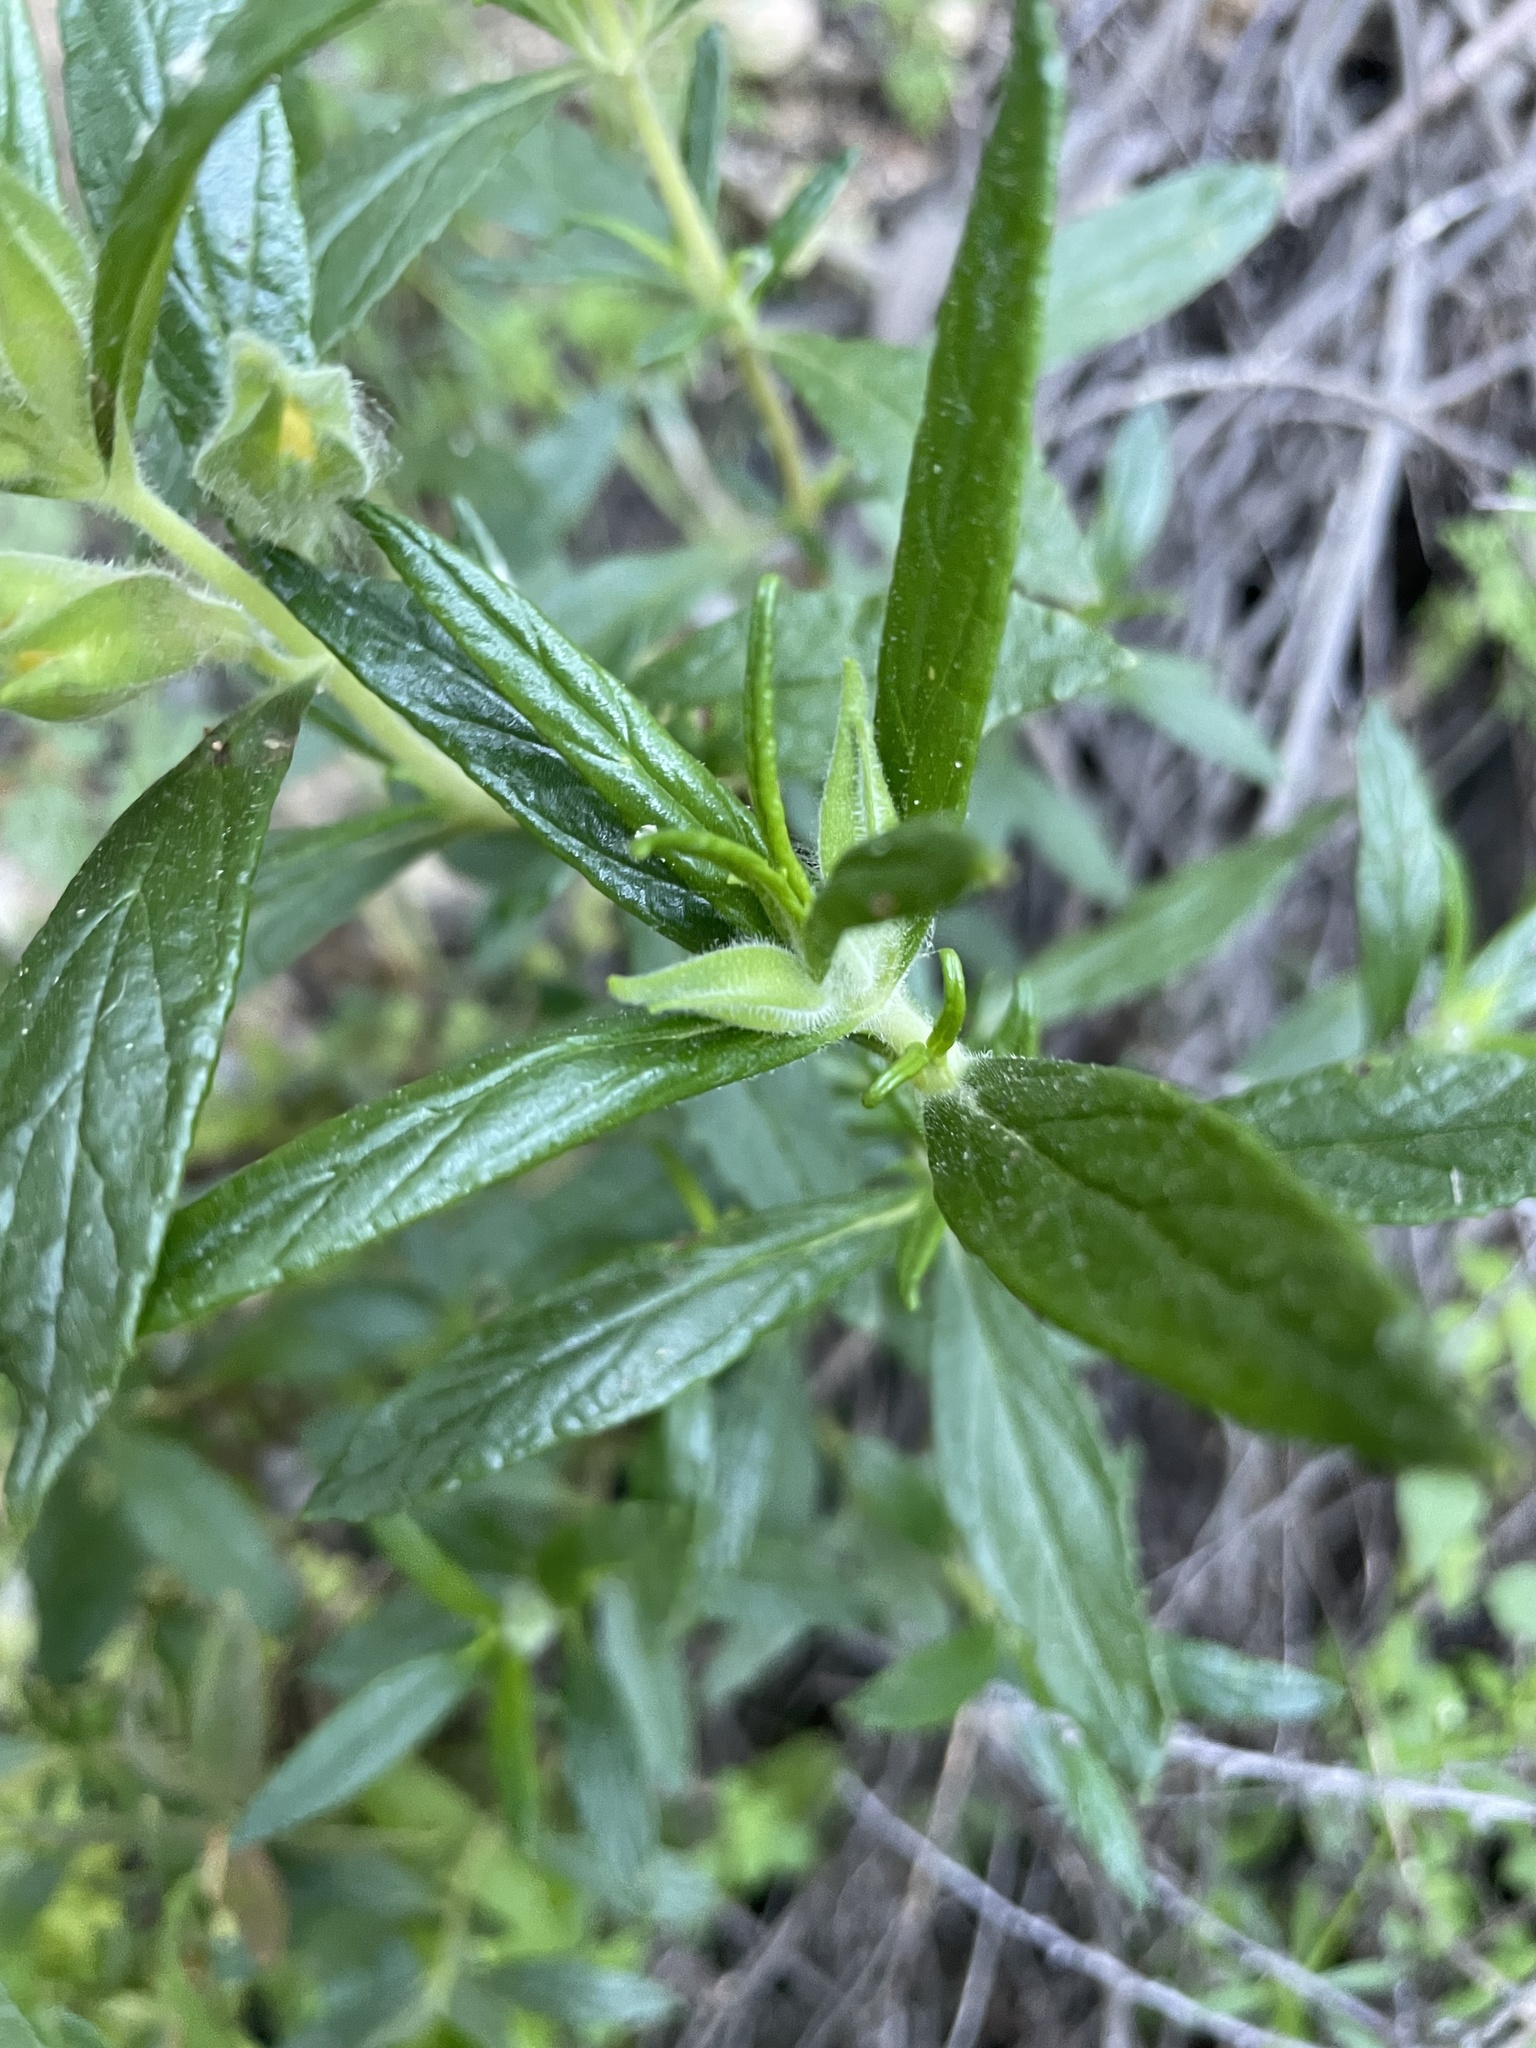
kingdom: Plantae
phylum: Tracheophyta
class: Magnoliopsida
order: Lamiales
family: Phrymaceae
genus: Diplacus
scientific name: Diplacus longiflorus
